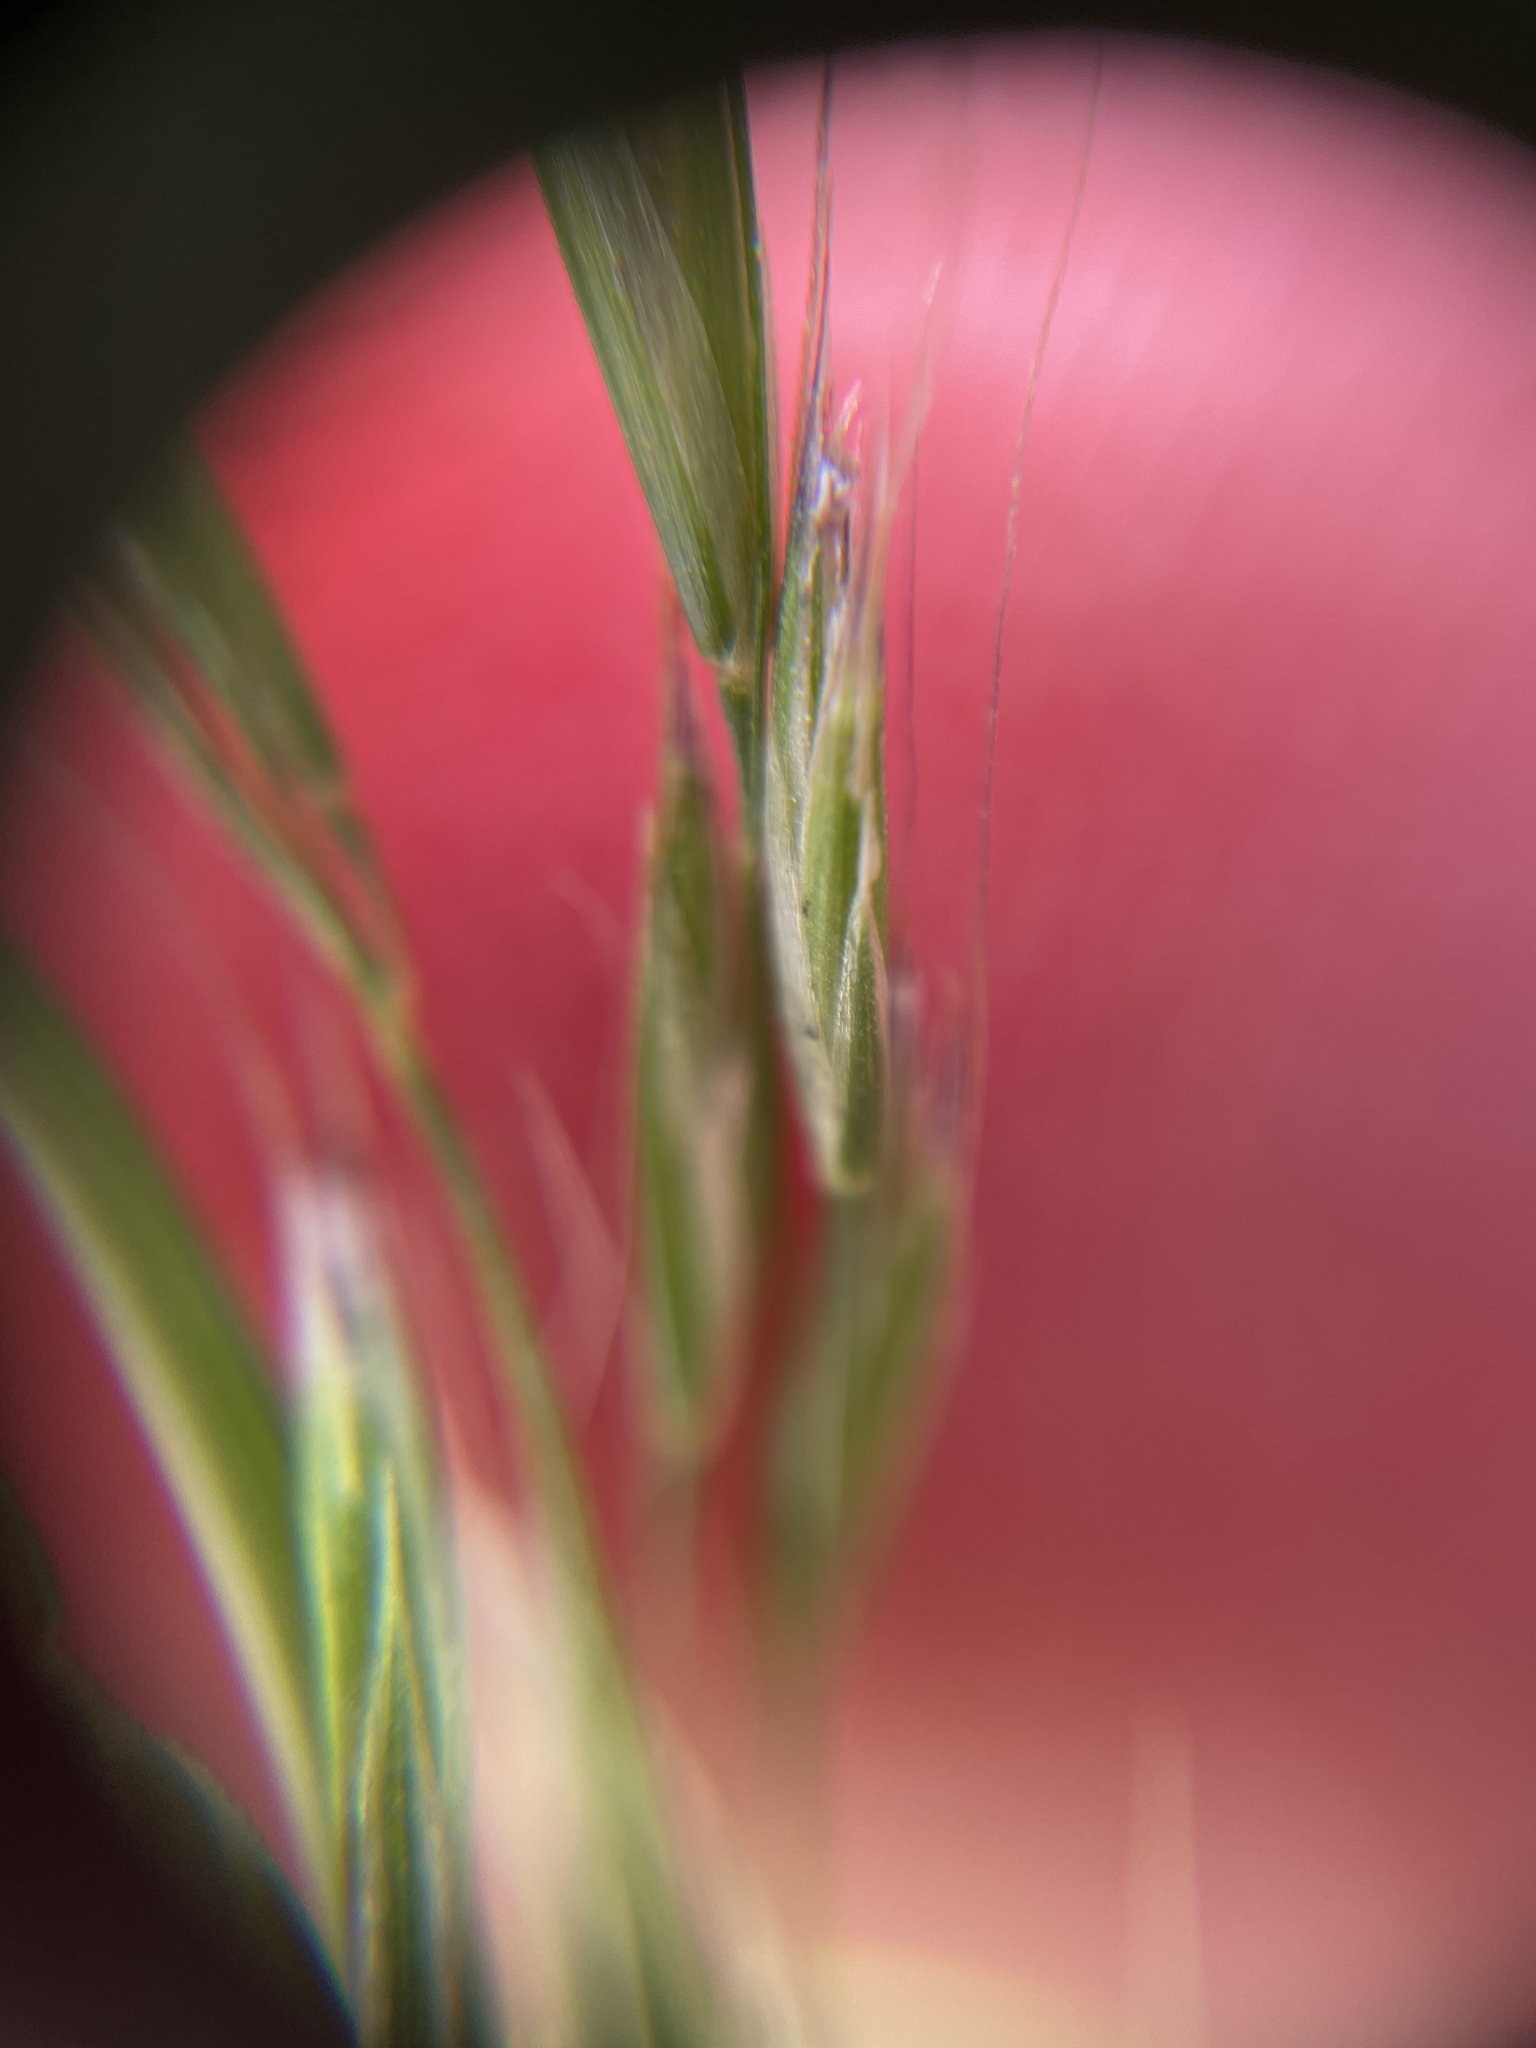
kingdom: Plantae
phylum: Tracheophyta
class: Liliopsida
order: Poales
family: Poaceae
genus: Festuca
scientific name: Festuca elmeri
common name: Coast fescue
